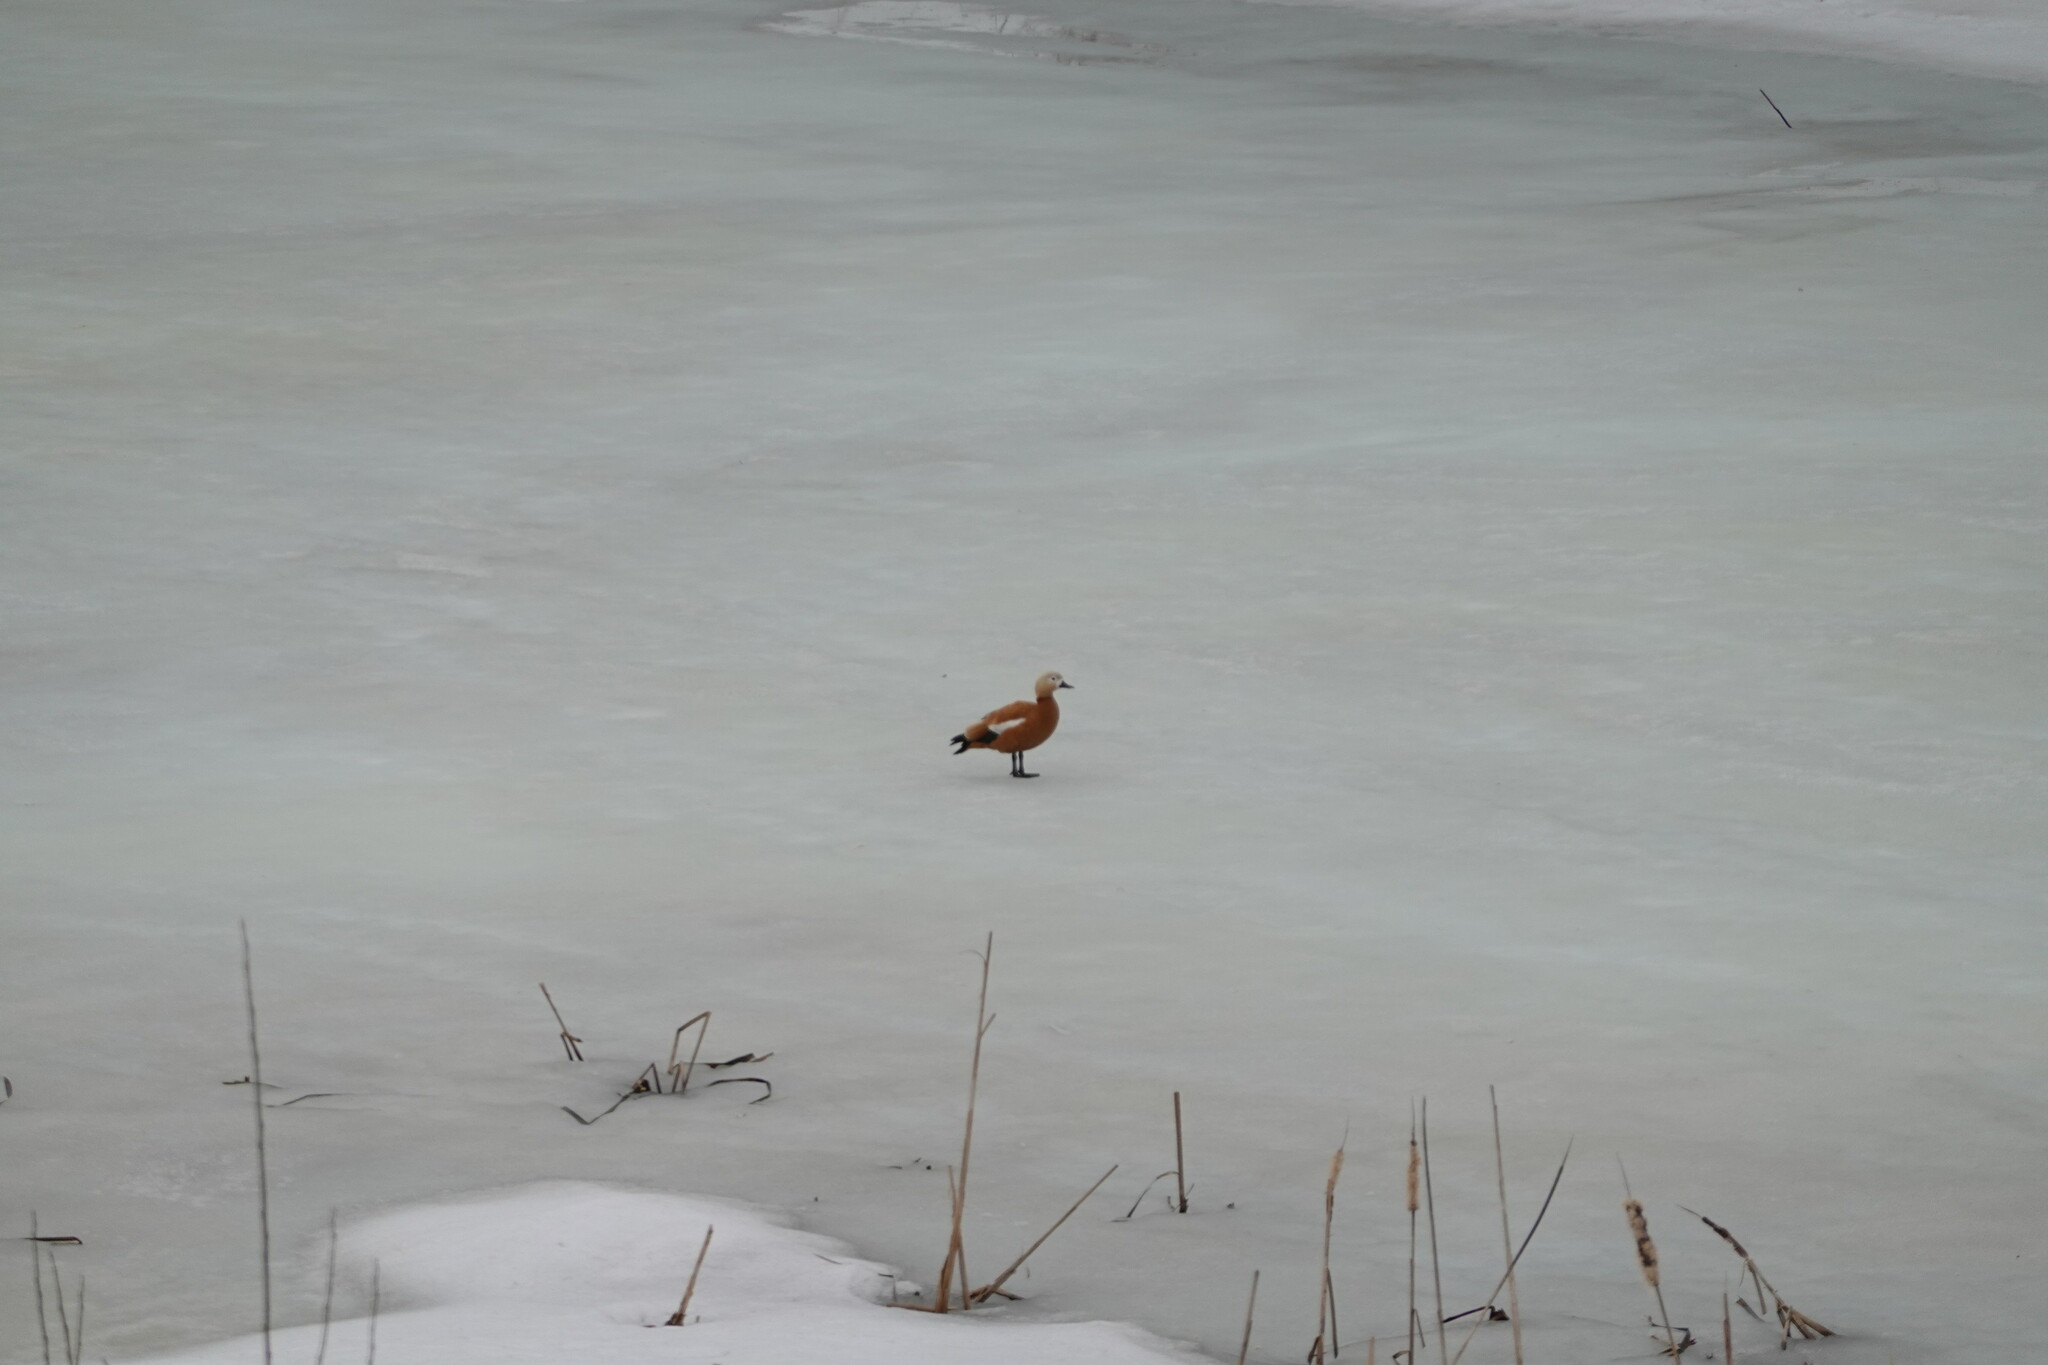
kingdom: Animalia
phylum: Chordata
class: Aves
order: Anseriformes
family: Anatidae
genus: Tadorna
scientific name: Tadorna ferruginea
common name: Ruddy shelduck
